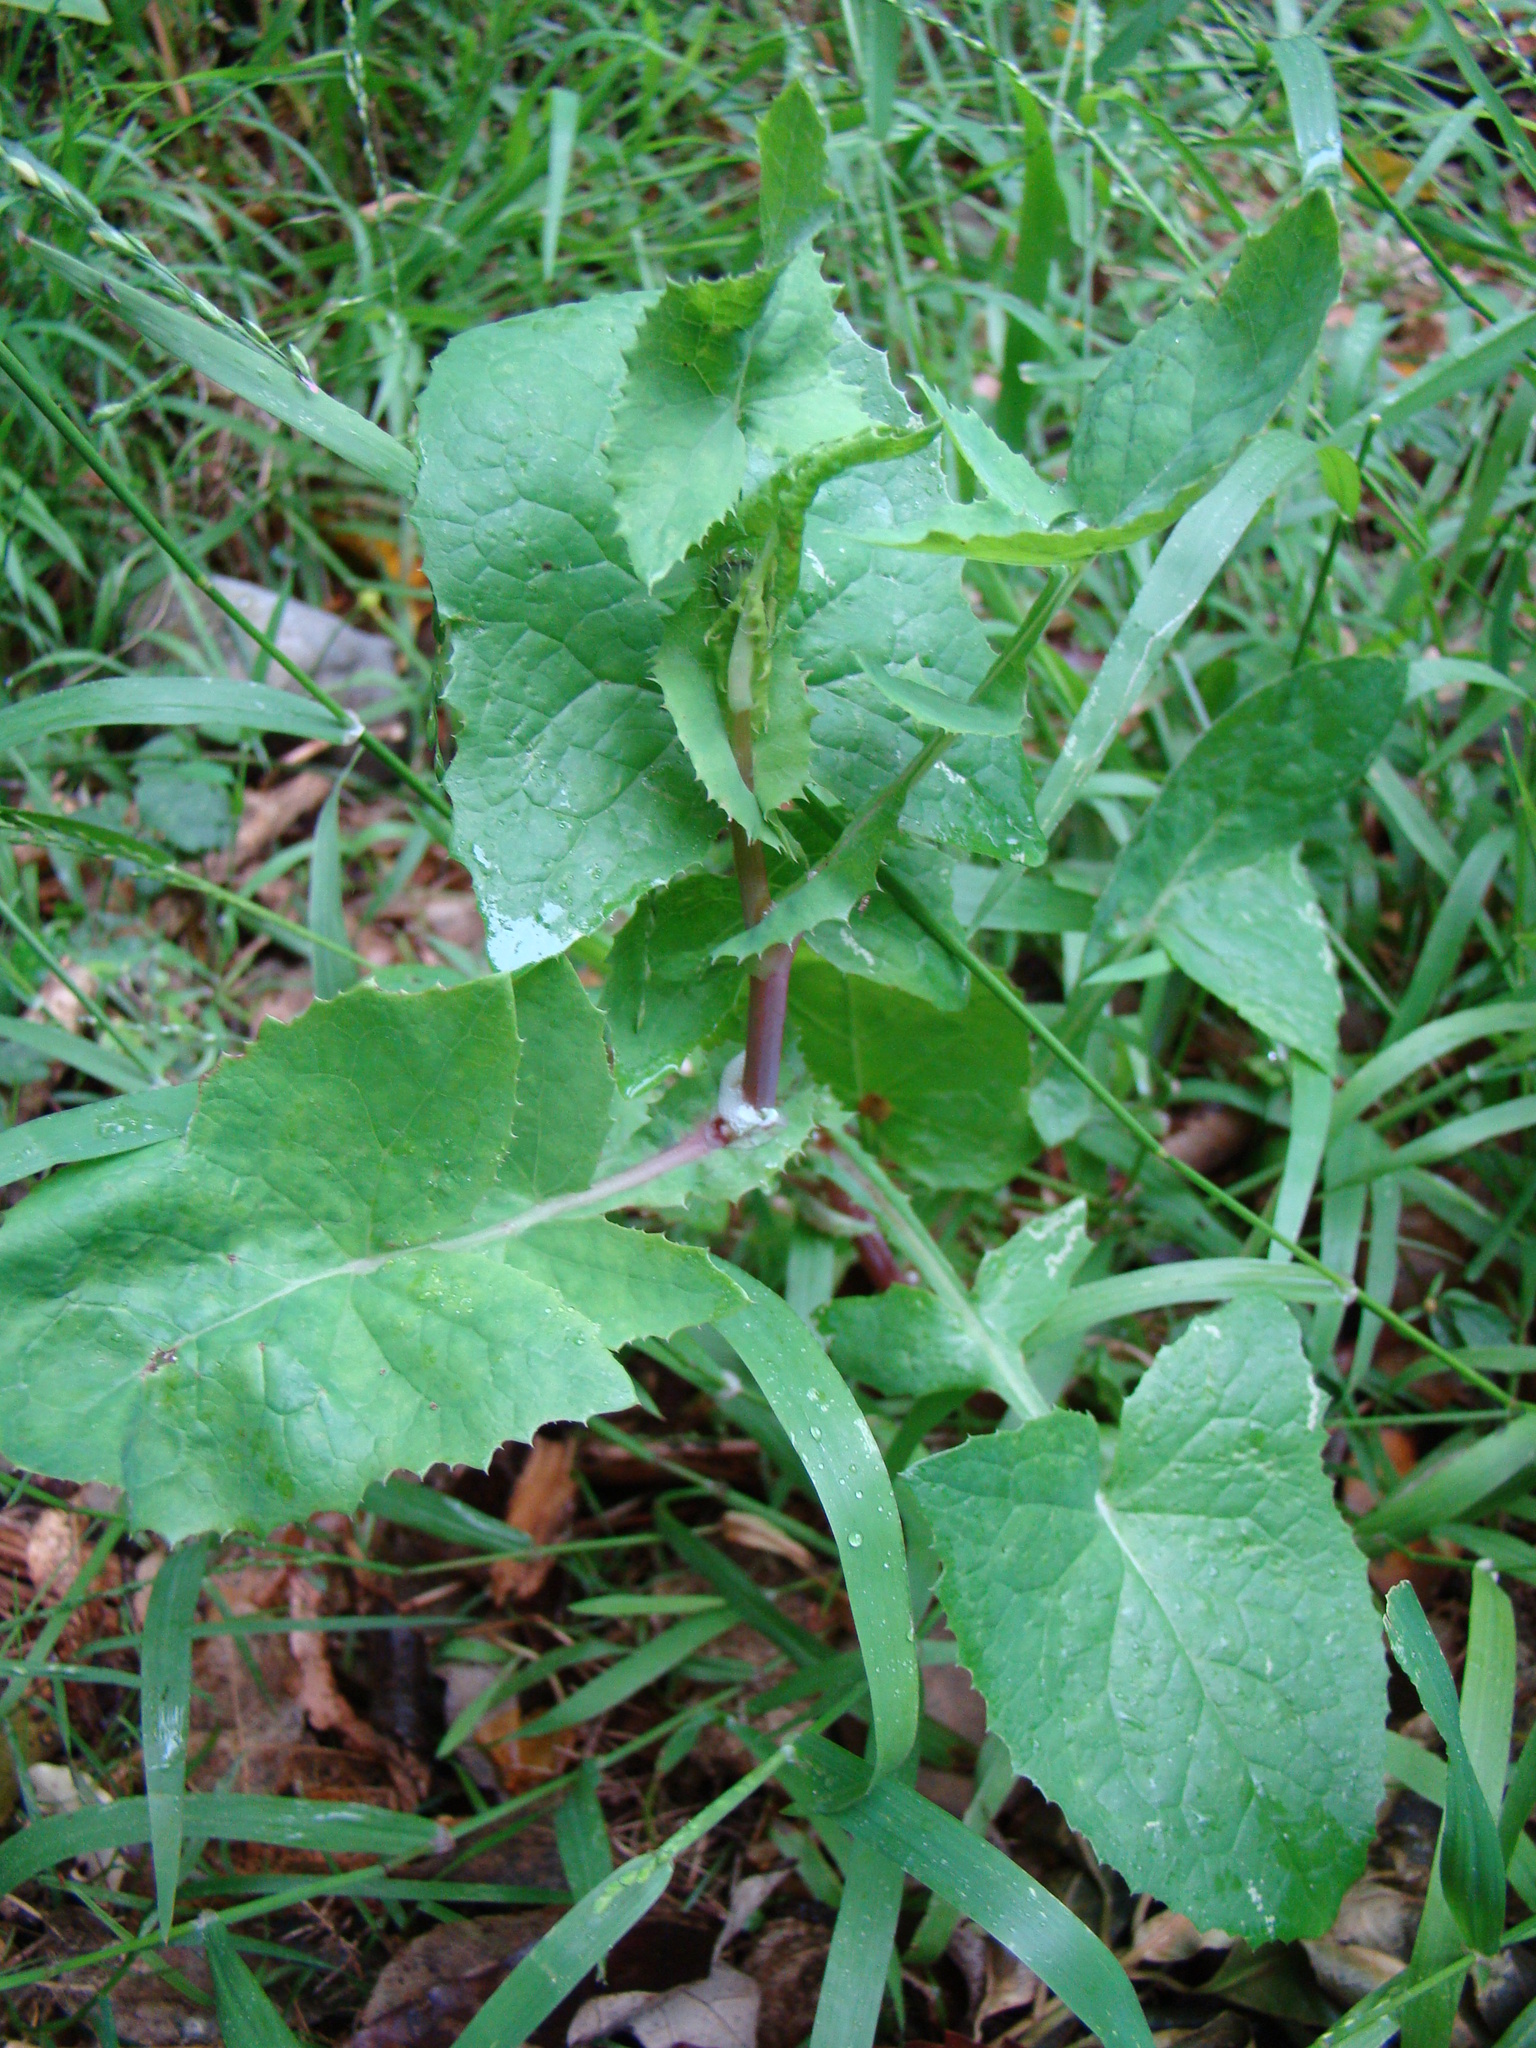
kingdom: Plantae
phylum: Tracheophyta
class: Magnoliopsida
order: Asterales
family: Asteraceae
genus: Sonchus
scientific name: Sonchus oleraceus
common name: Common sowthistle
